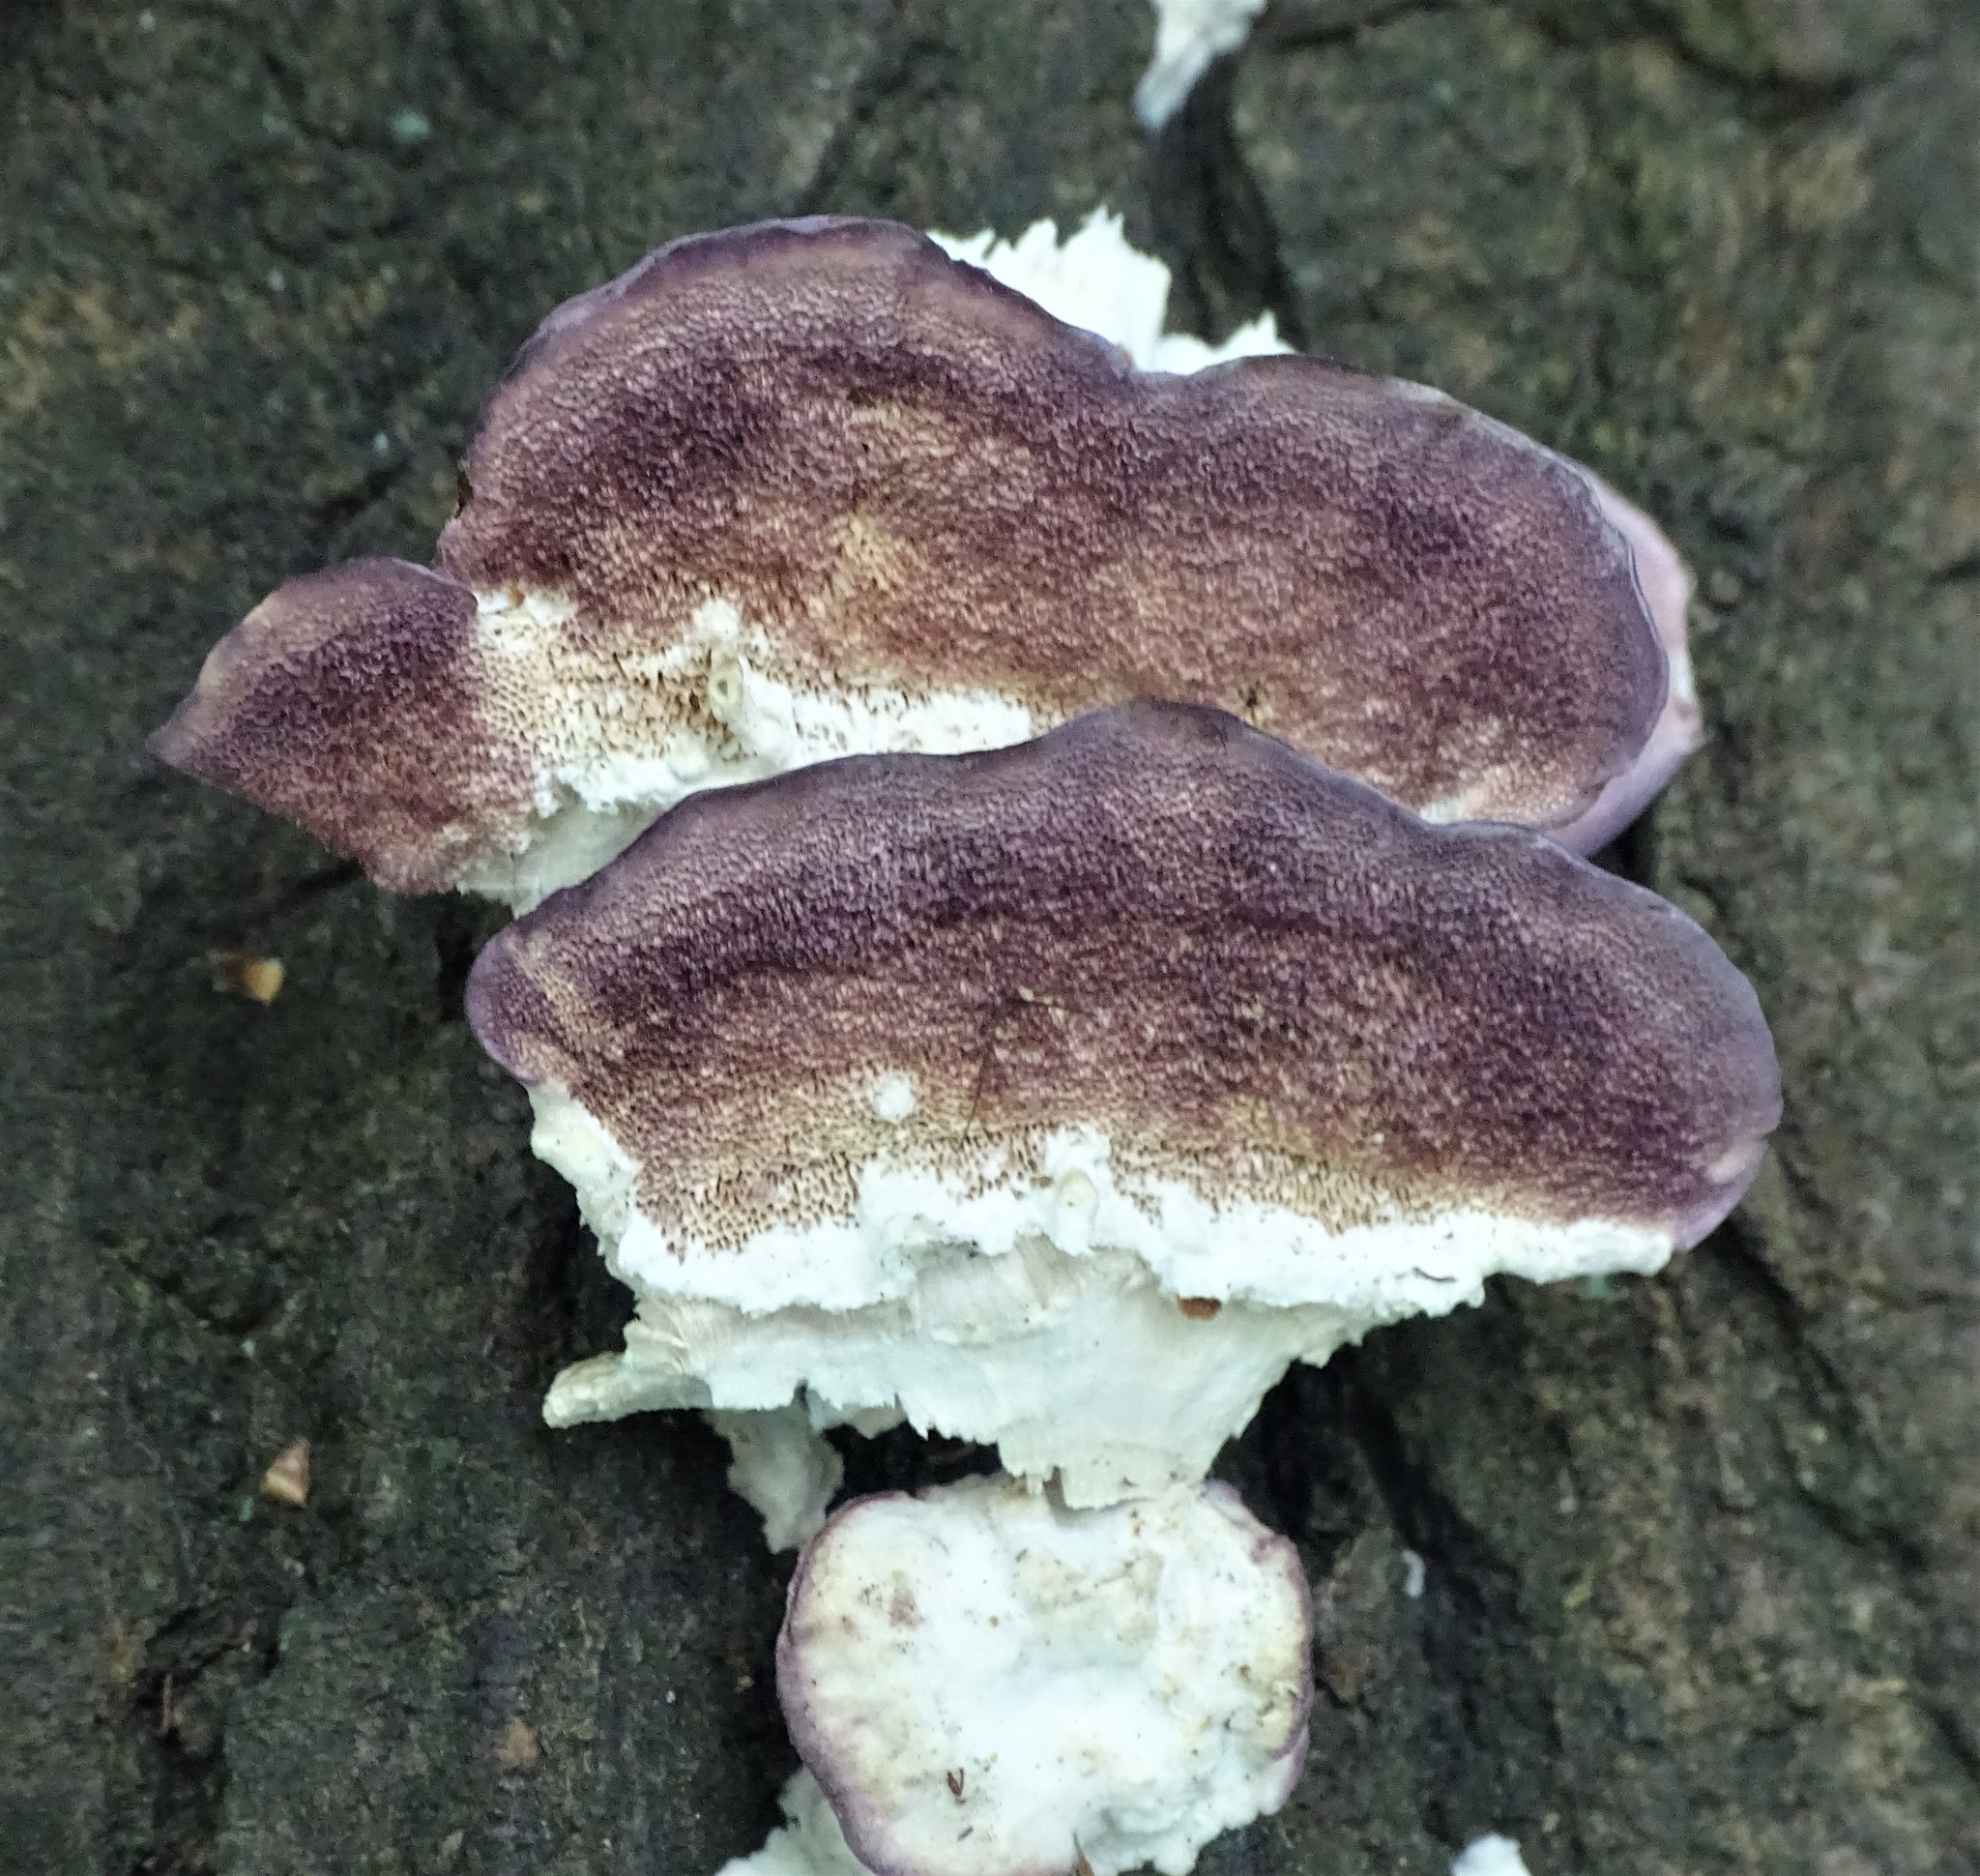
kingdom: Fungi
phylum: Basidiomycota
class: Agaricomycetes
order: Hymenochaetales
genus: Trichaptum
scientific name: Trichaptum biforme
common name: Violet-toothed polypore
